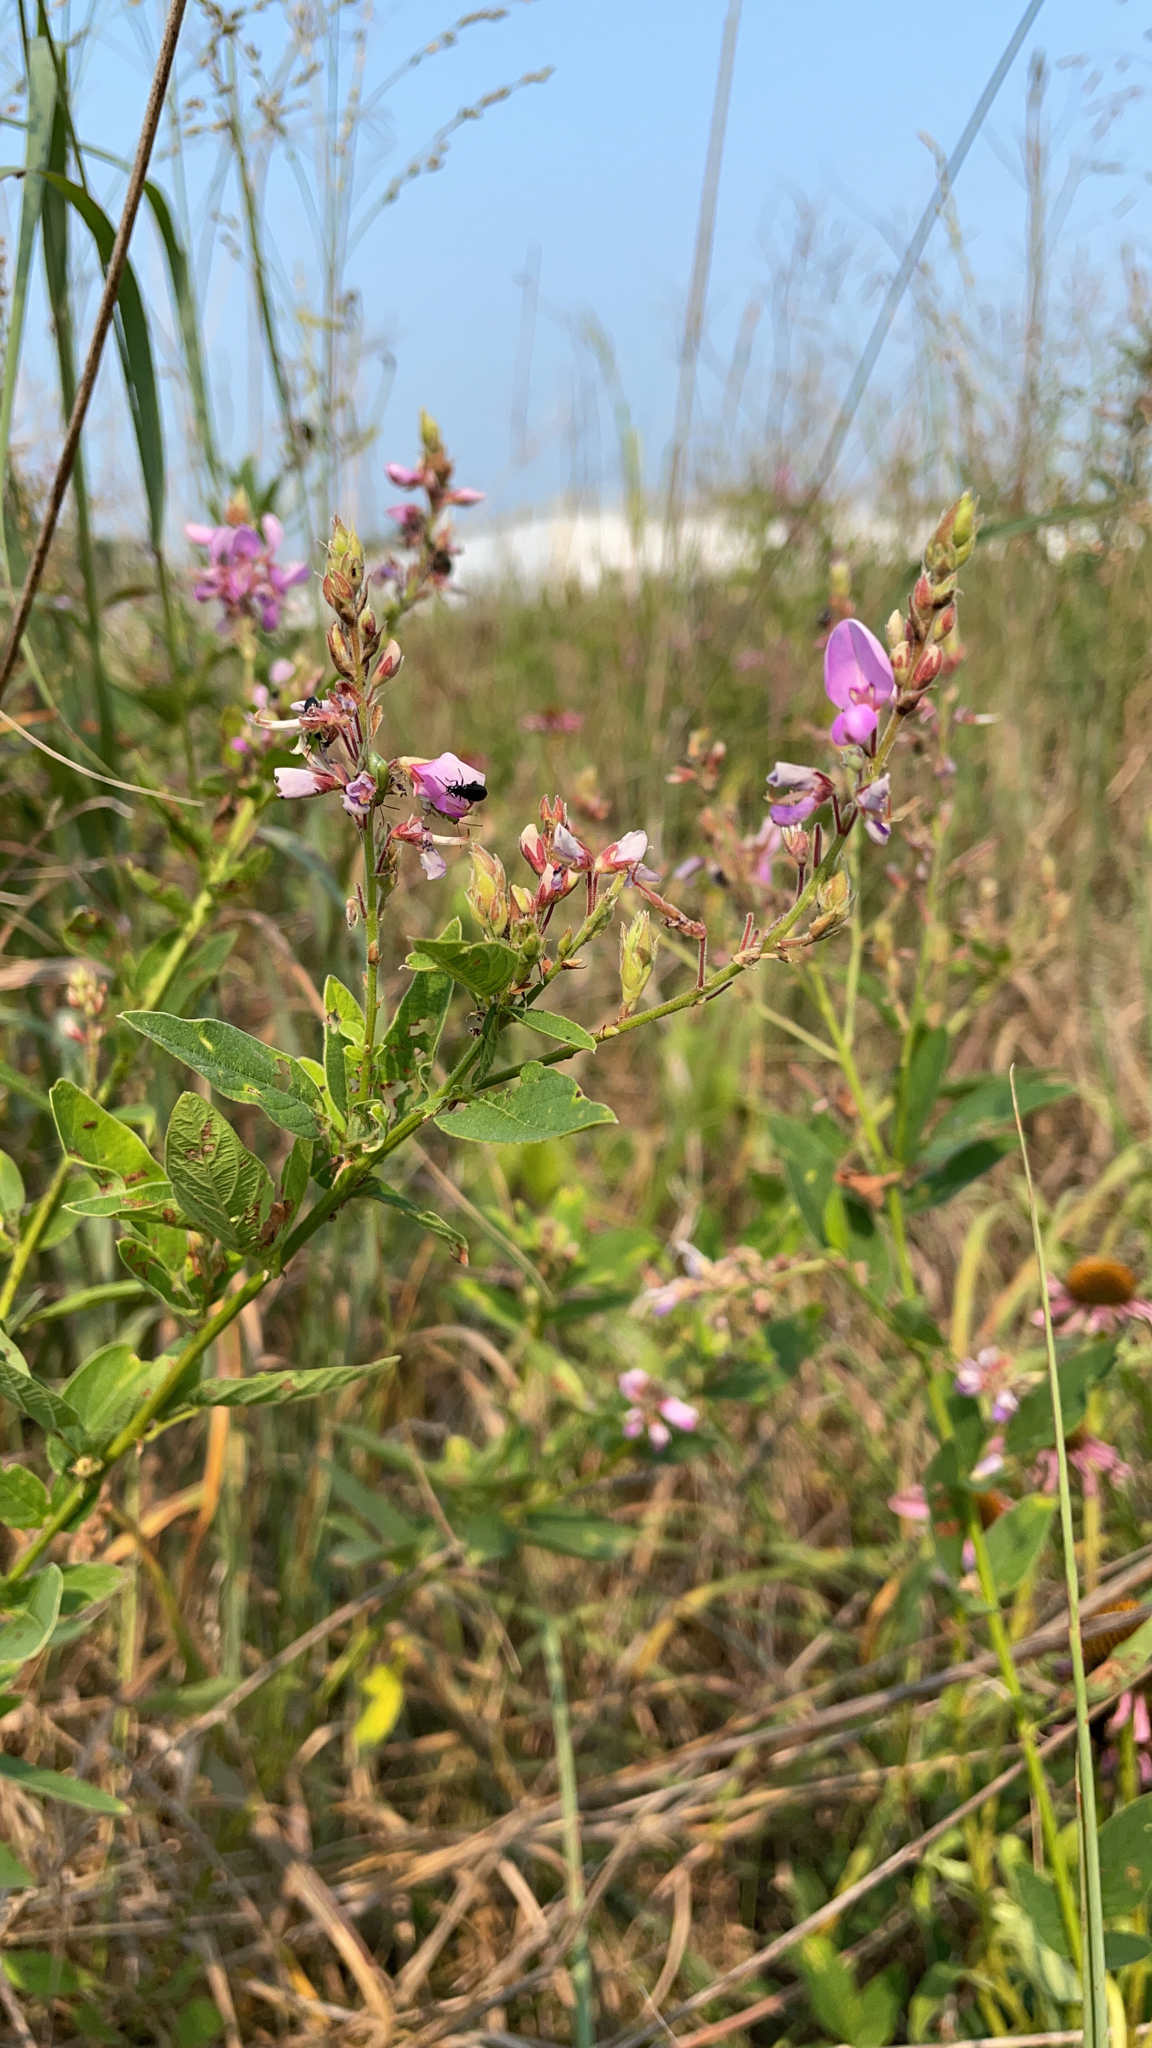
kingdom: Plantae
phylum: Tracheophyta
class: Magnoliopsida
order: Fabales
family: Fabaceae
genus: Desmodium
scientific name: Desmodium canadense
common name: Canada tick-trefoil
